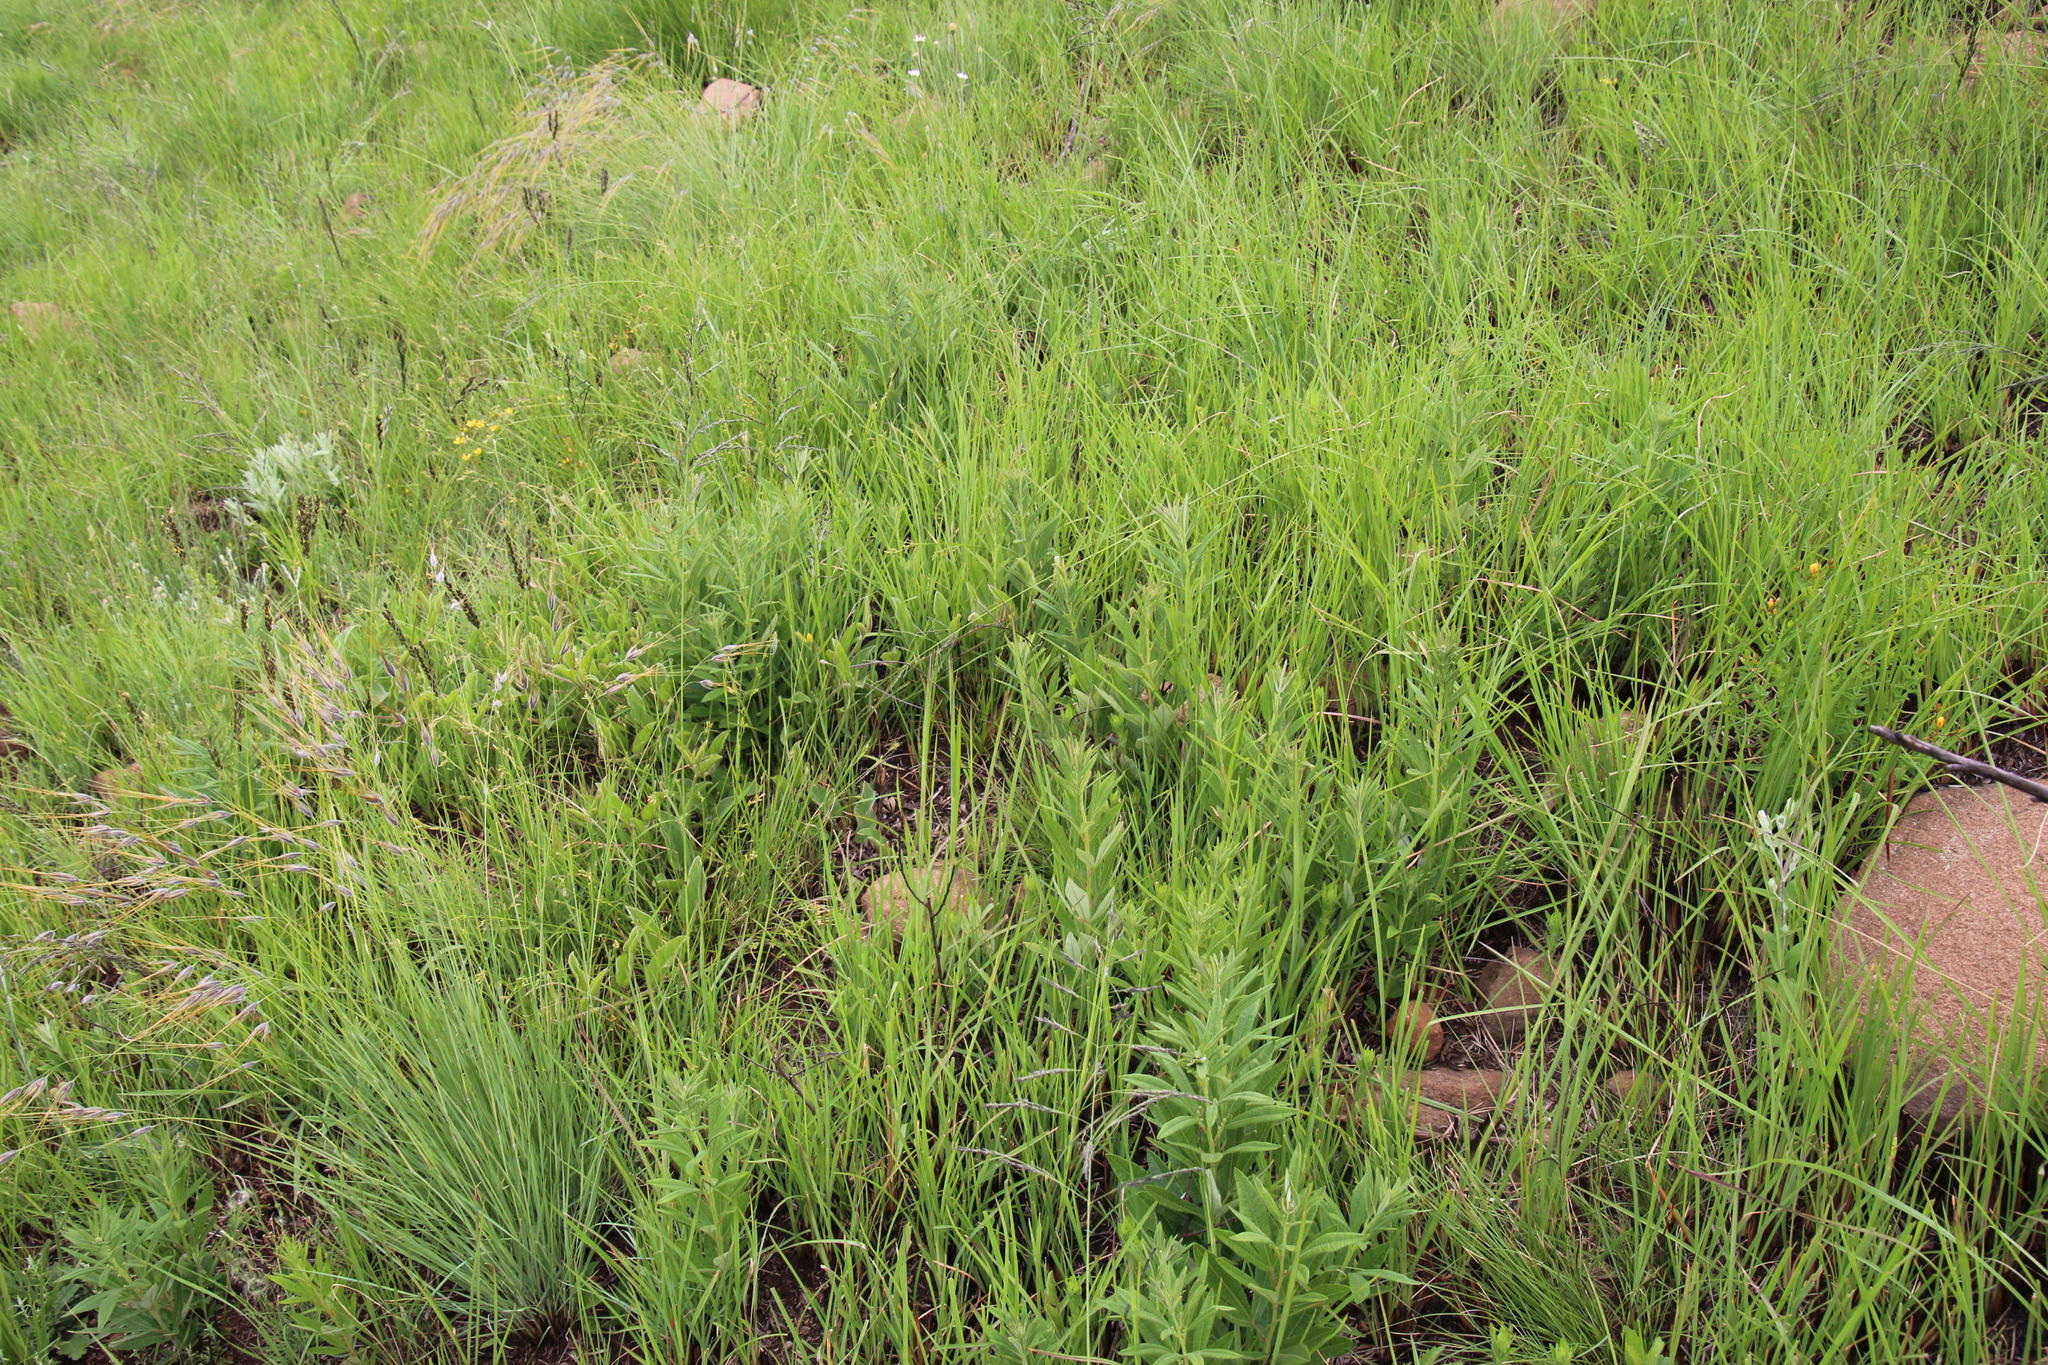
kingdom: Plantae
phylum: Tracheophyta
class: Magnoliopsida
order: Sapindales
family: Anacardiaceae
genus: Searsia
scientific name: Searsia discolor
